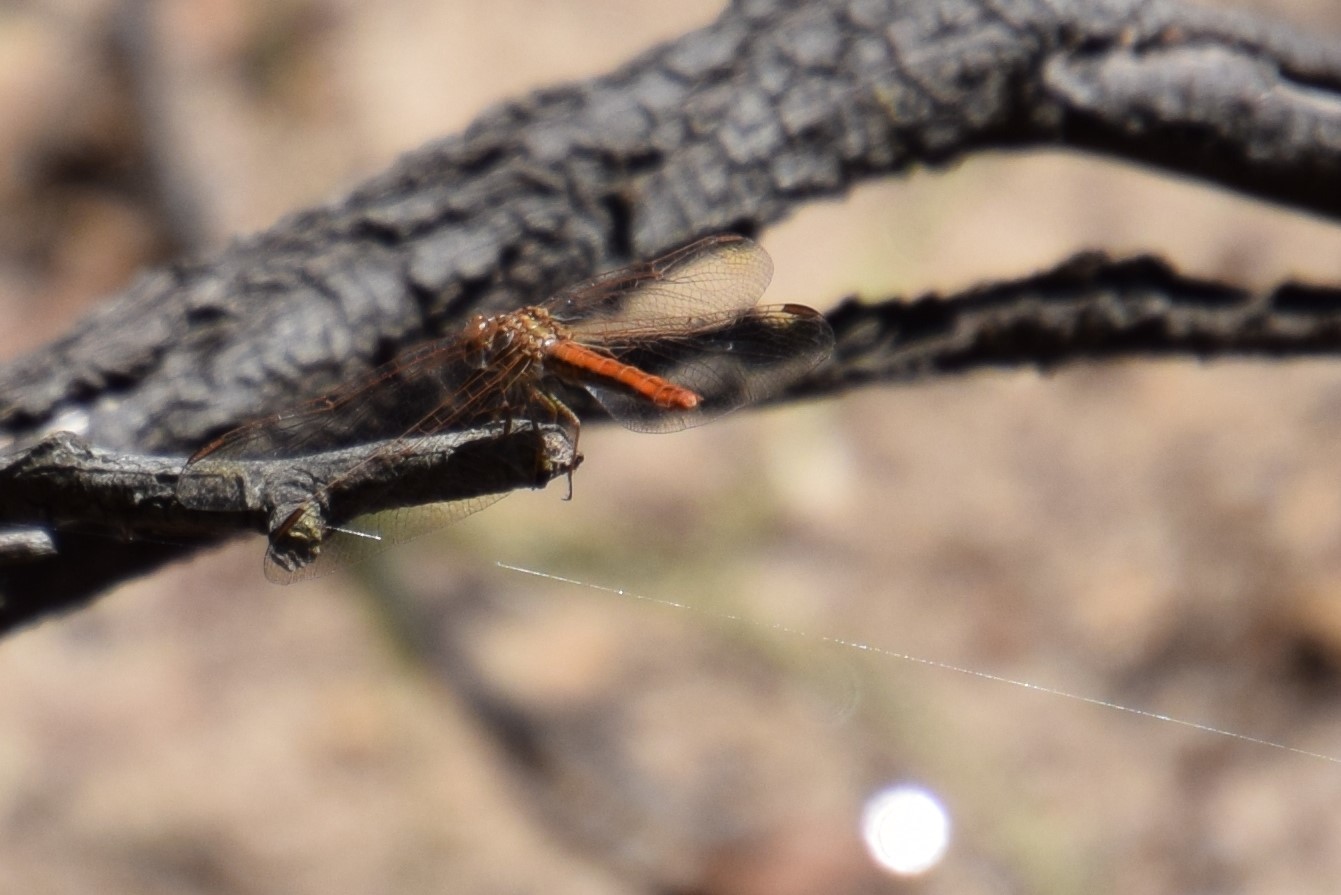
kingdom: Animalia
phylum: Arthropoda
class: Insecta
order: Odonata
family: Libellulidae
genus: Diplacodes
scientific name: Diplacodes haematodes
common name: Scarlet percher
